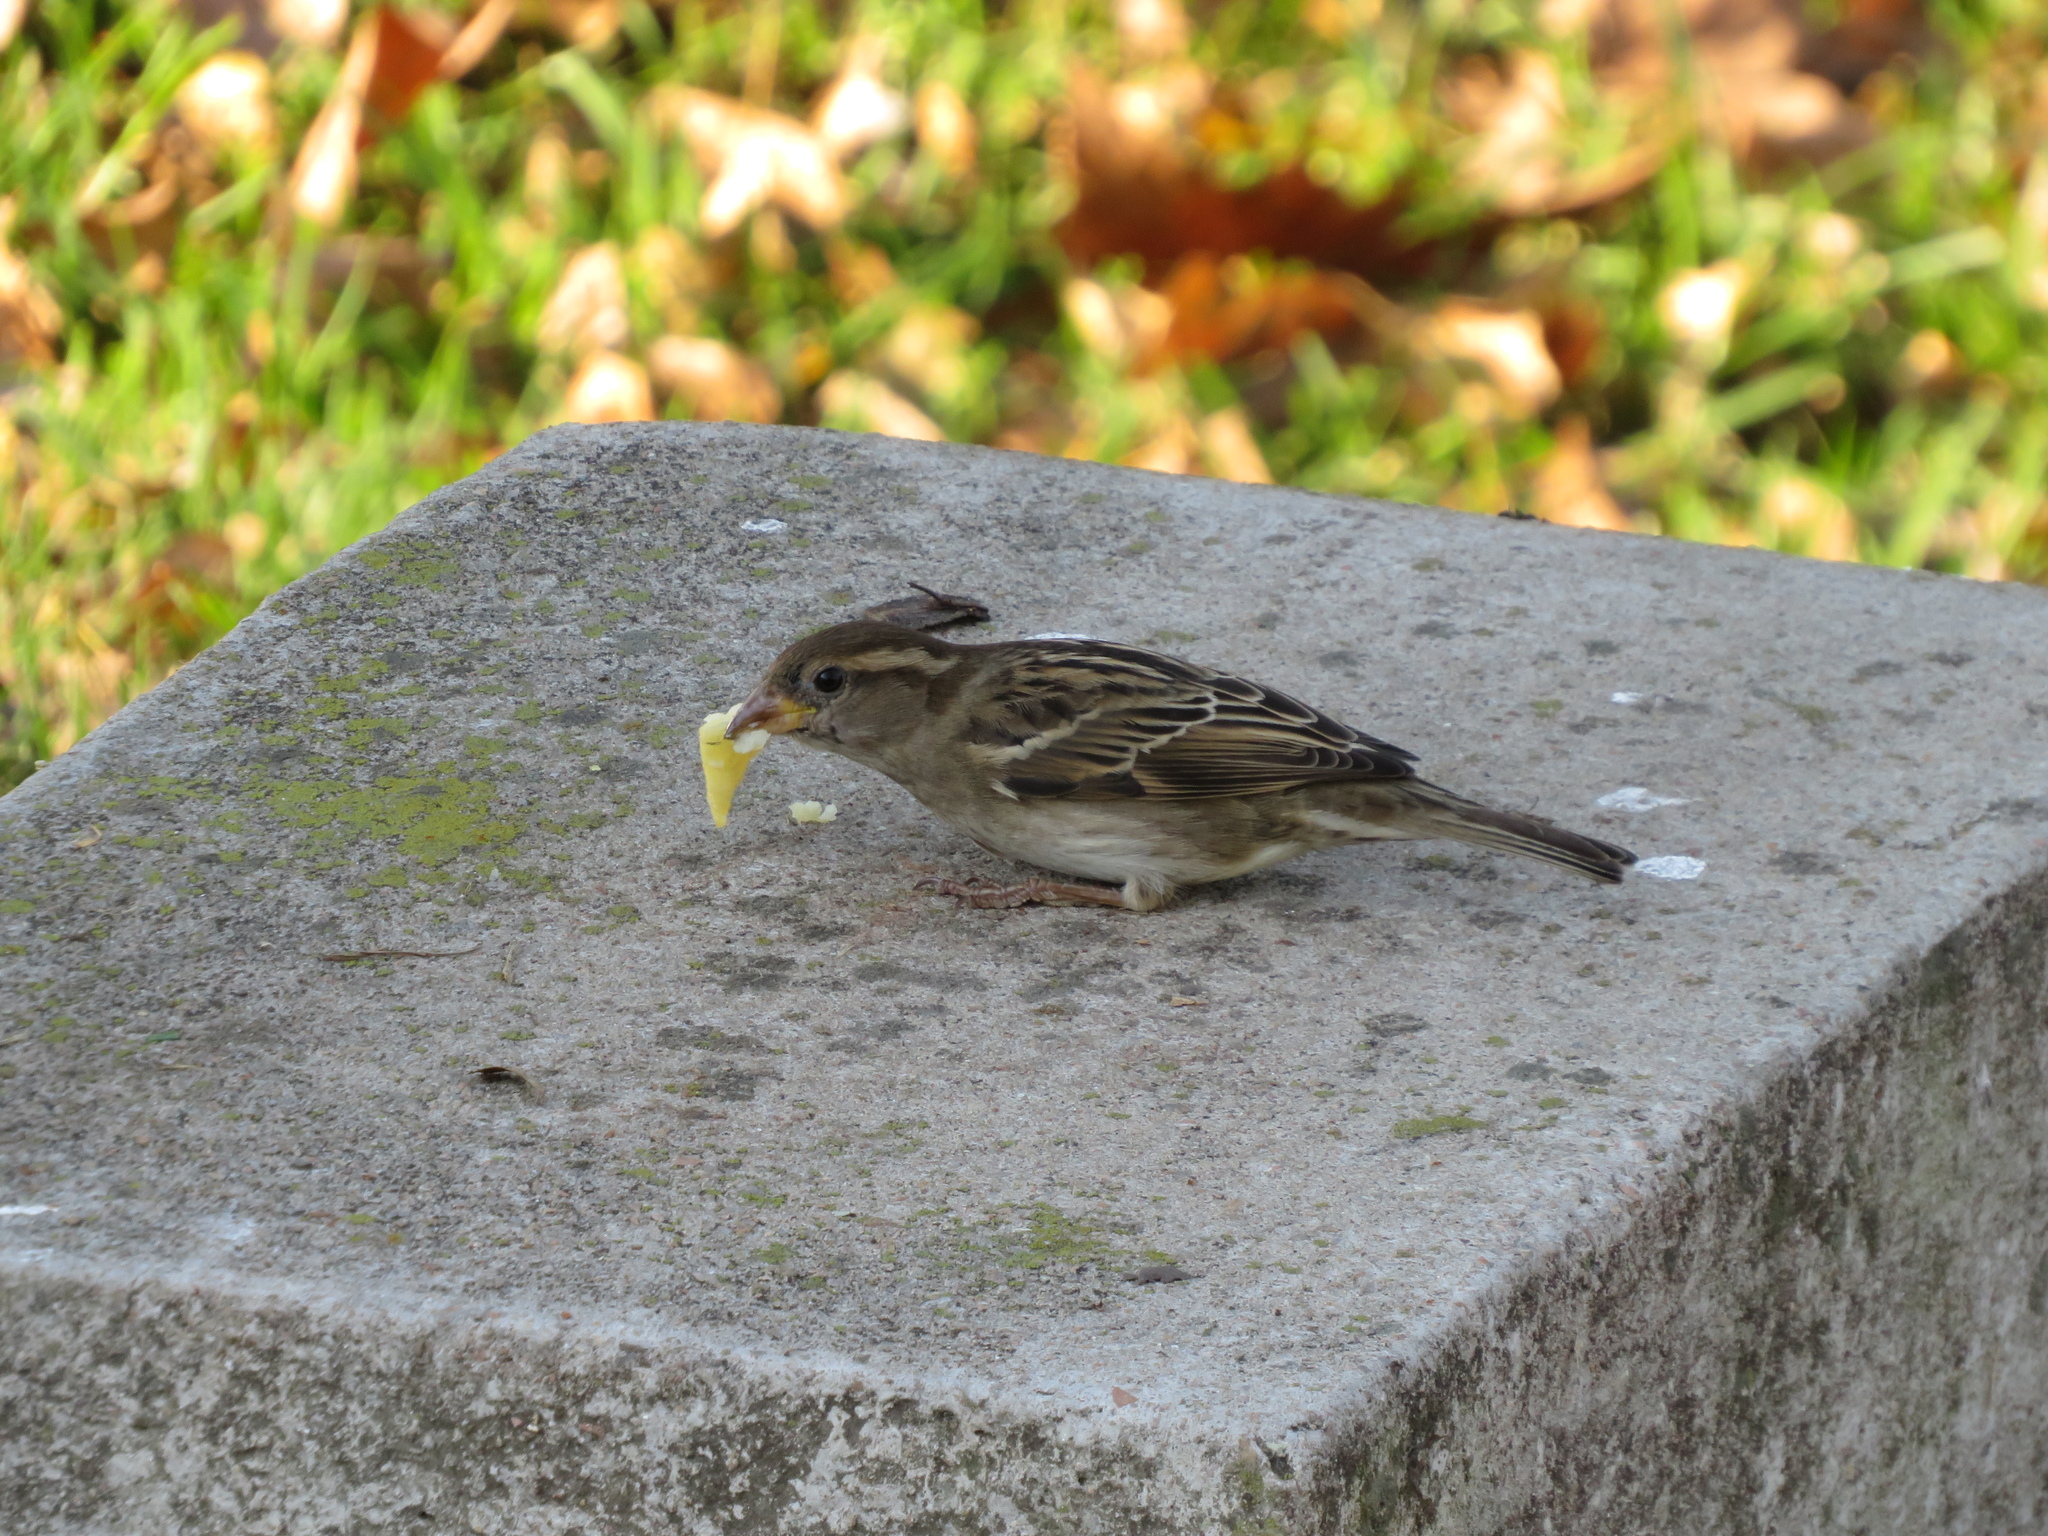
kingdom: Animalia
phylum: Chordata
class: Aves
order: Passeriformes
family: Passeridae
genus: Passer
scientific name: Passer domesticus
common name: House sparrow
